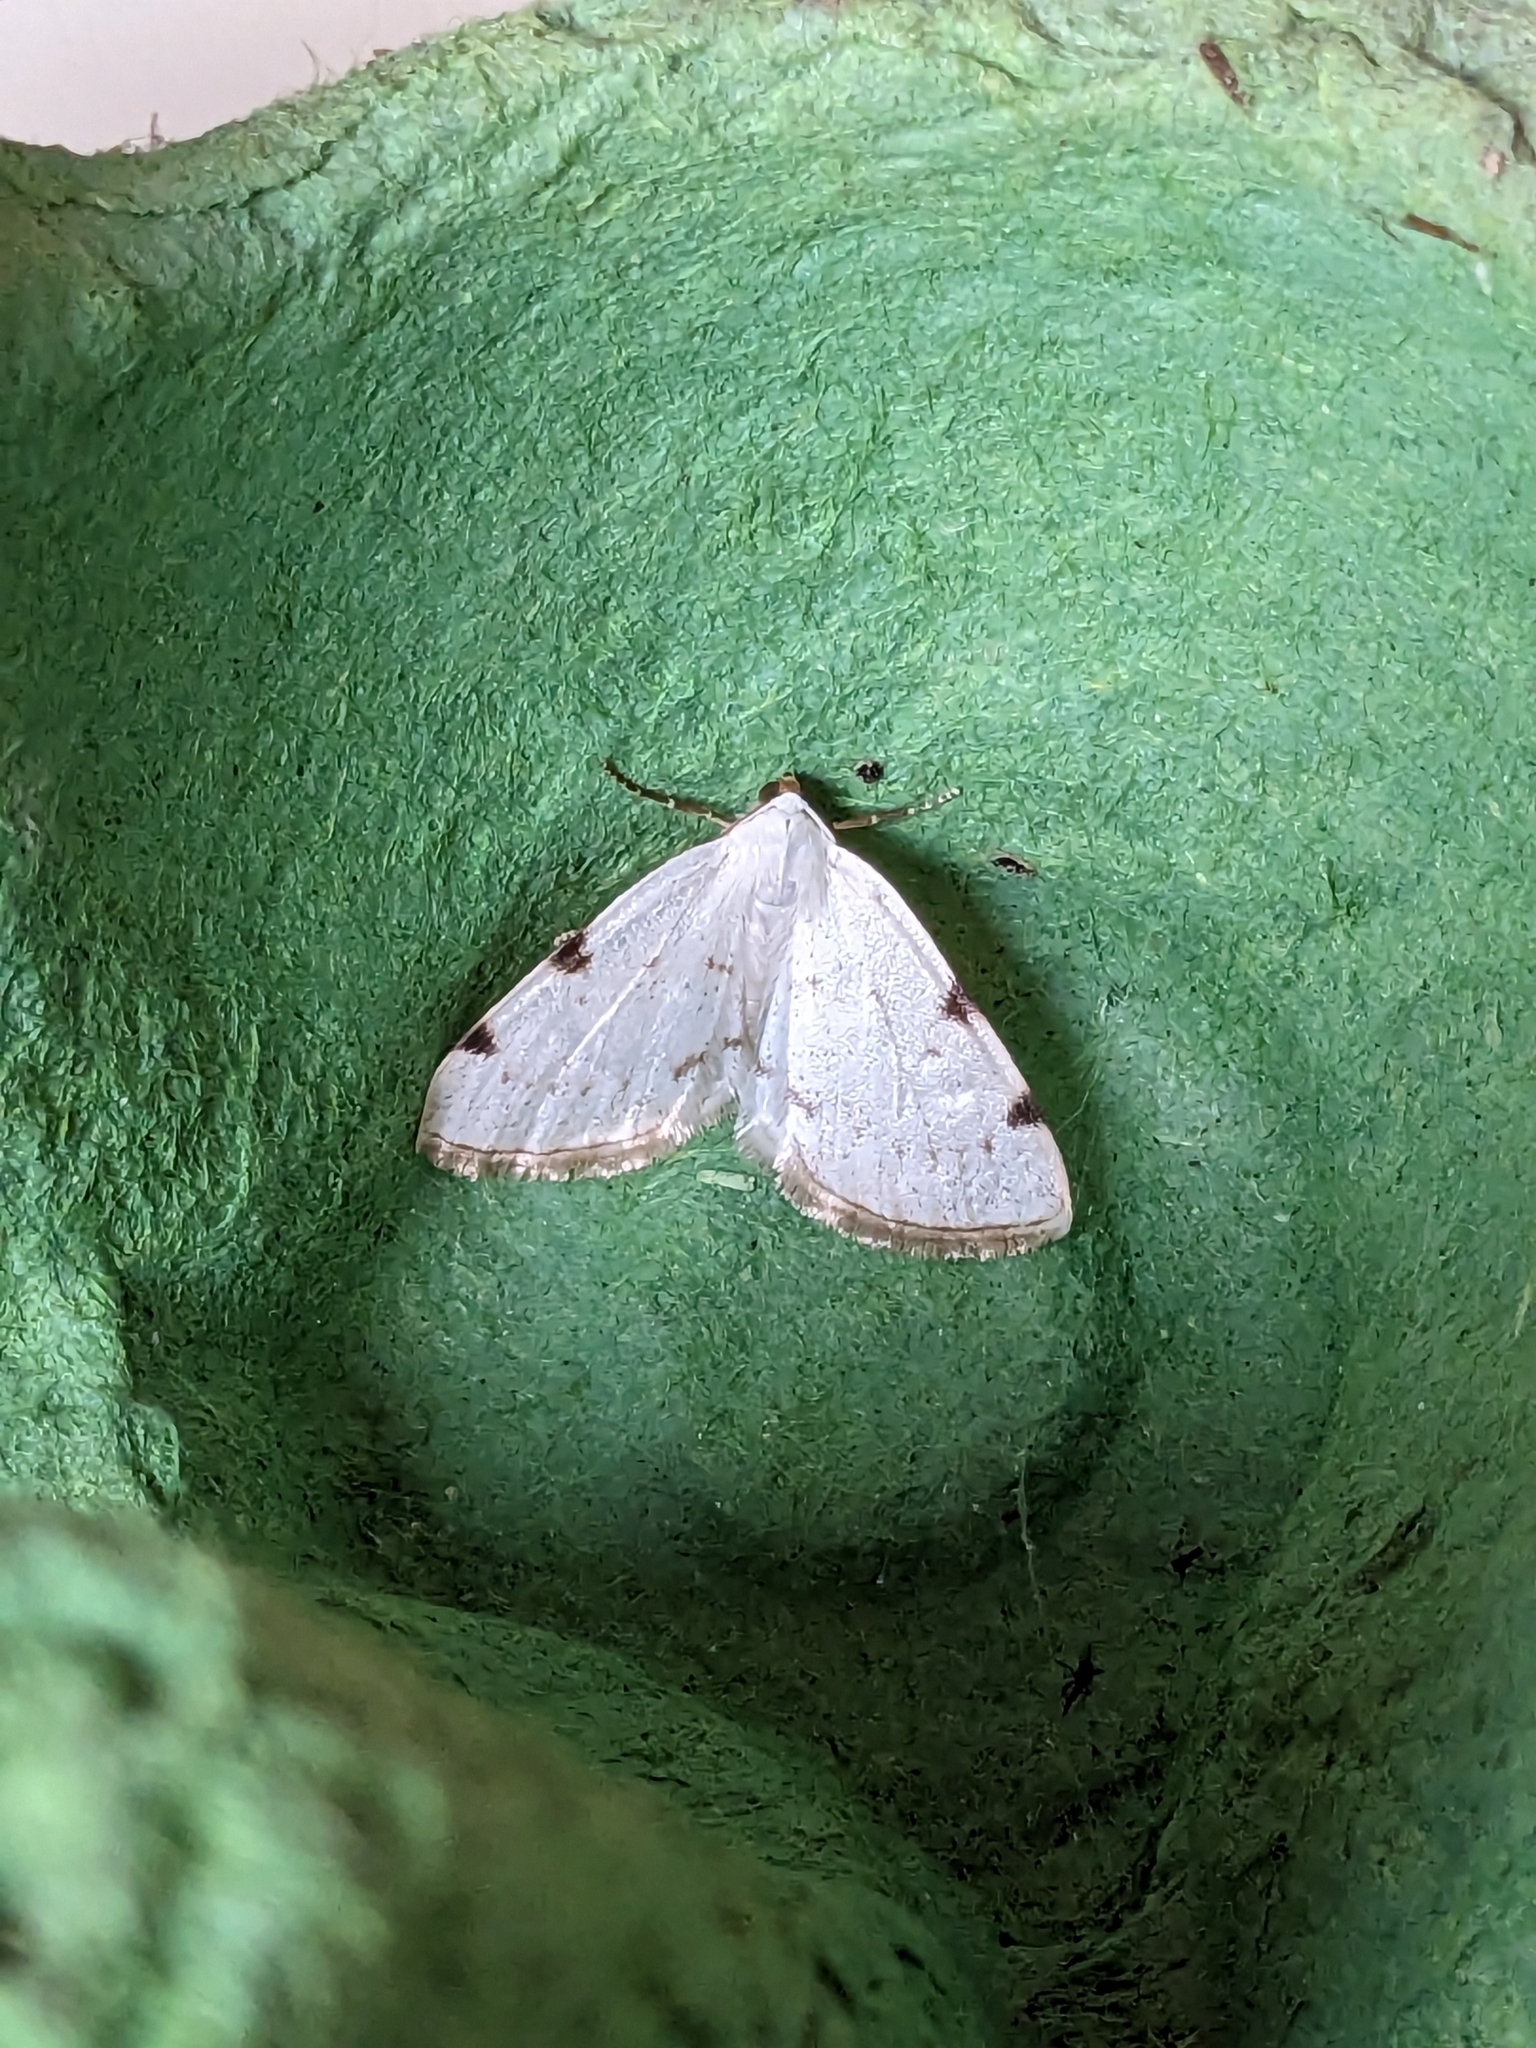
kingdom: Animalia
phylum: Arthropoda
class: Insecta
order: Lepidoptera
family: Geometridae
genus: Lomographa
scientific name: Lomographa bimaculata
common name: White-pinion spotted
